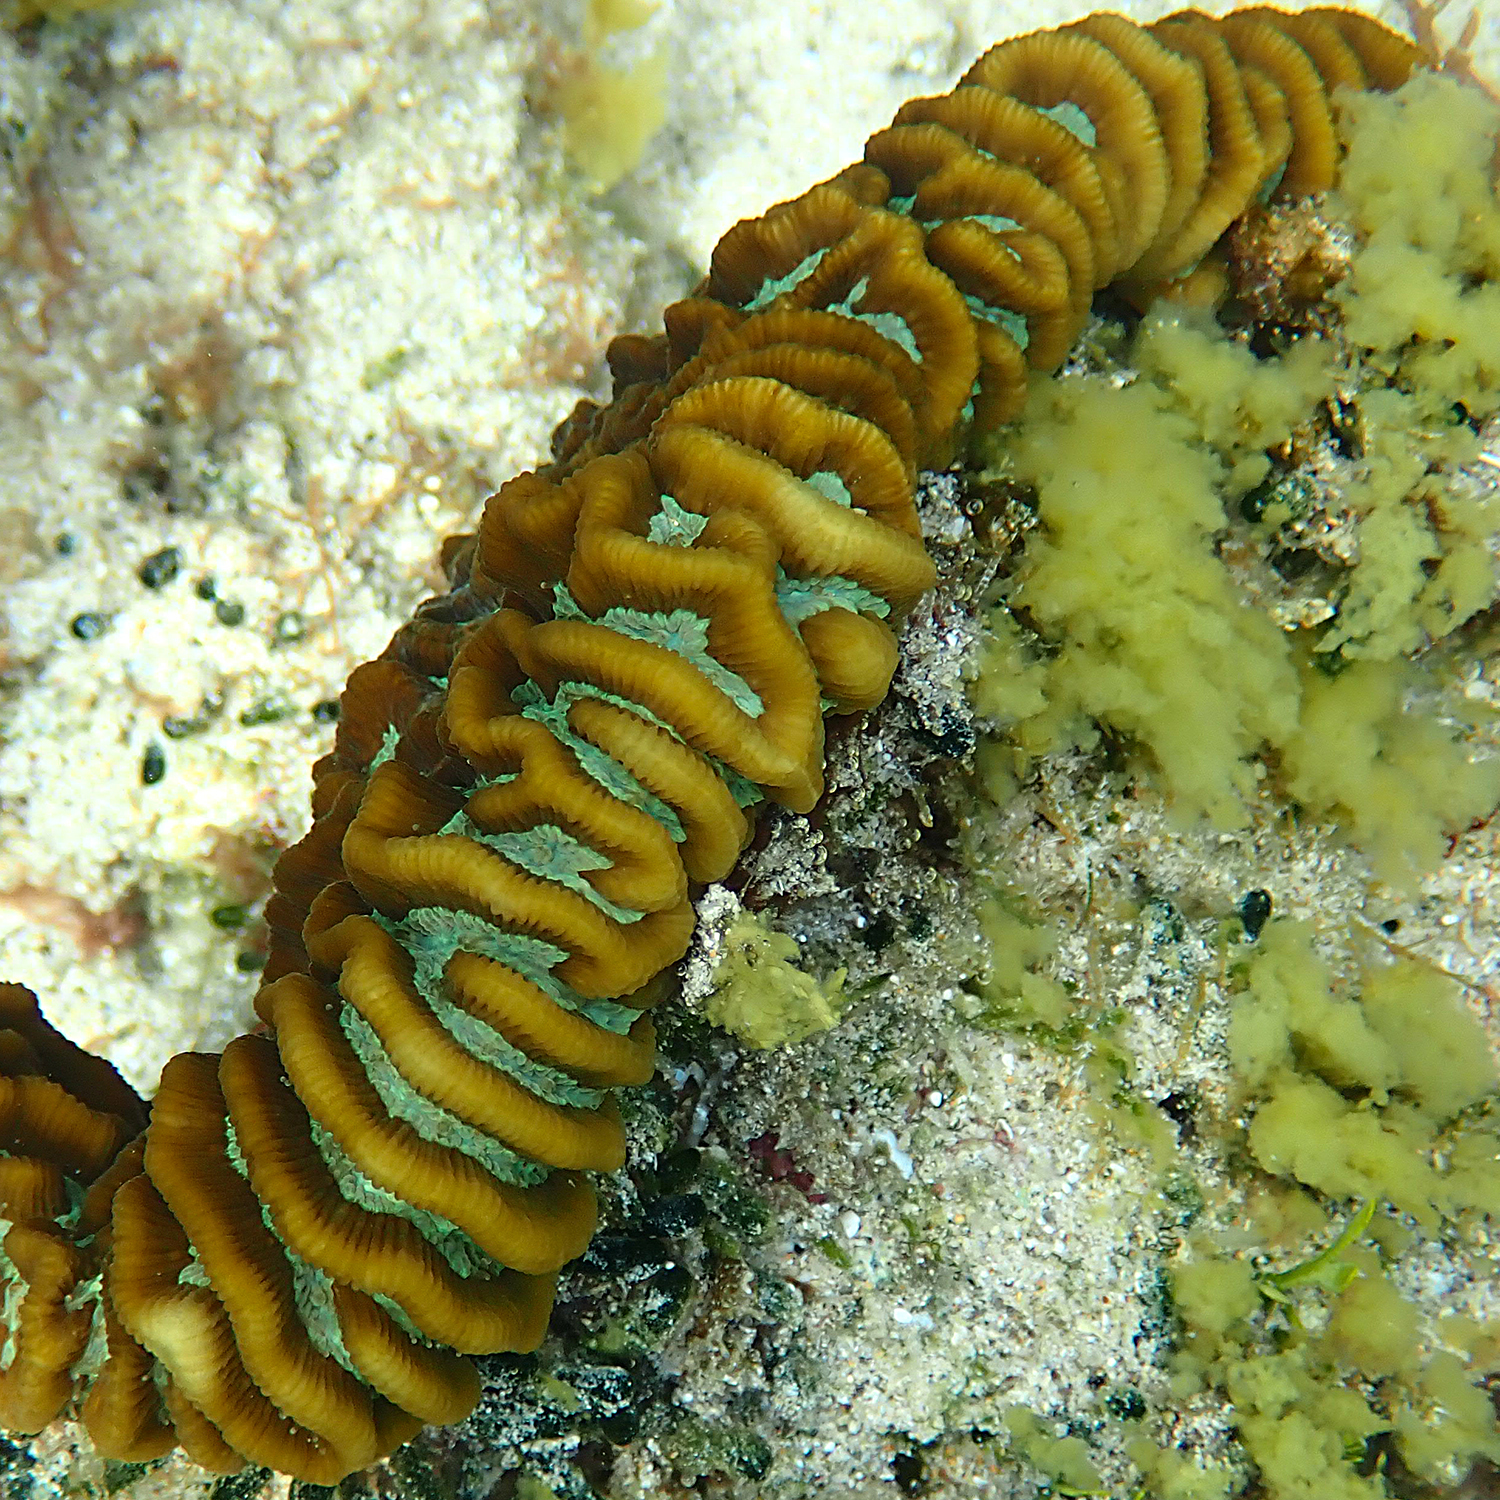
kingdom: Animalia
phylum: Cnidaria
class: Anthozoa
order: Scleractinia
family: Merulinidae
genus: Paragoniastrea
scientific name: Paragoniastrea australensis
